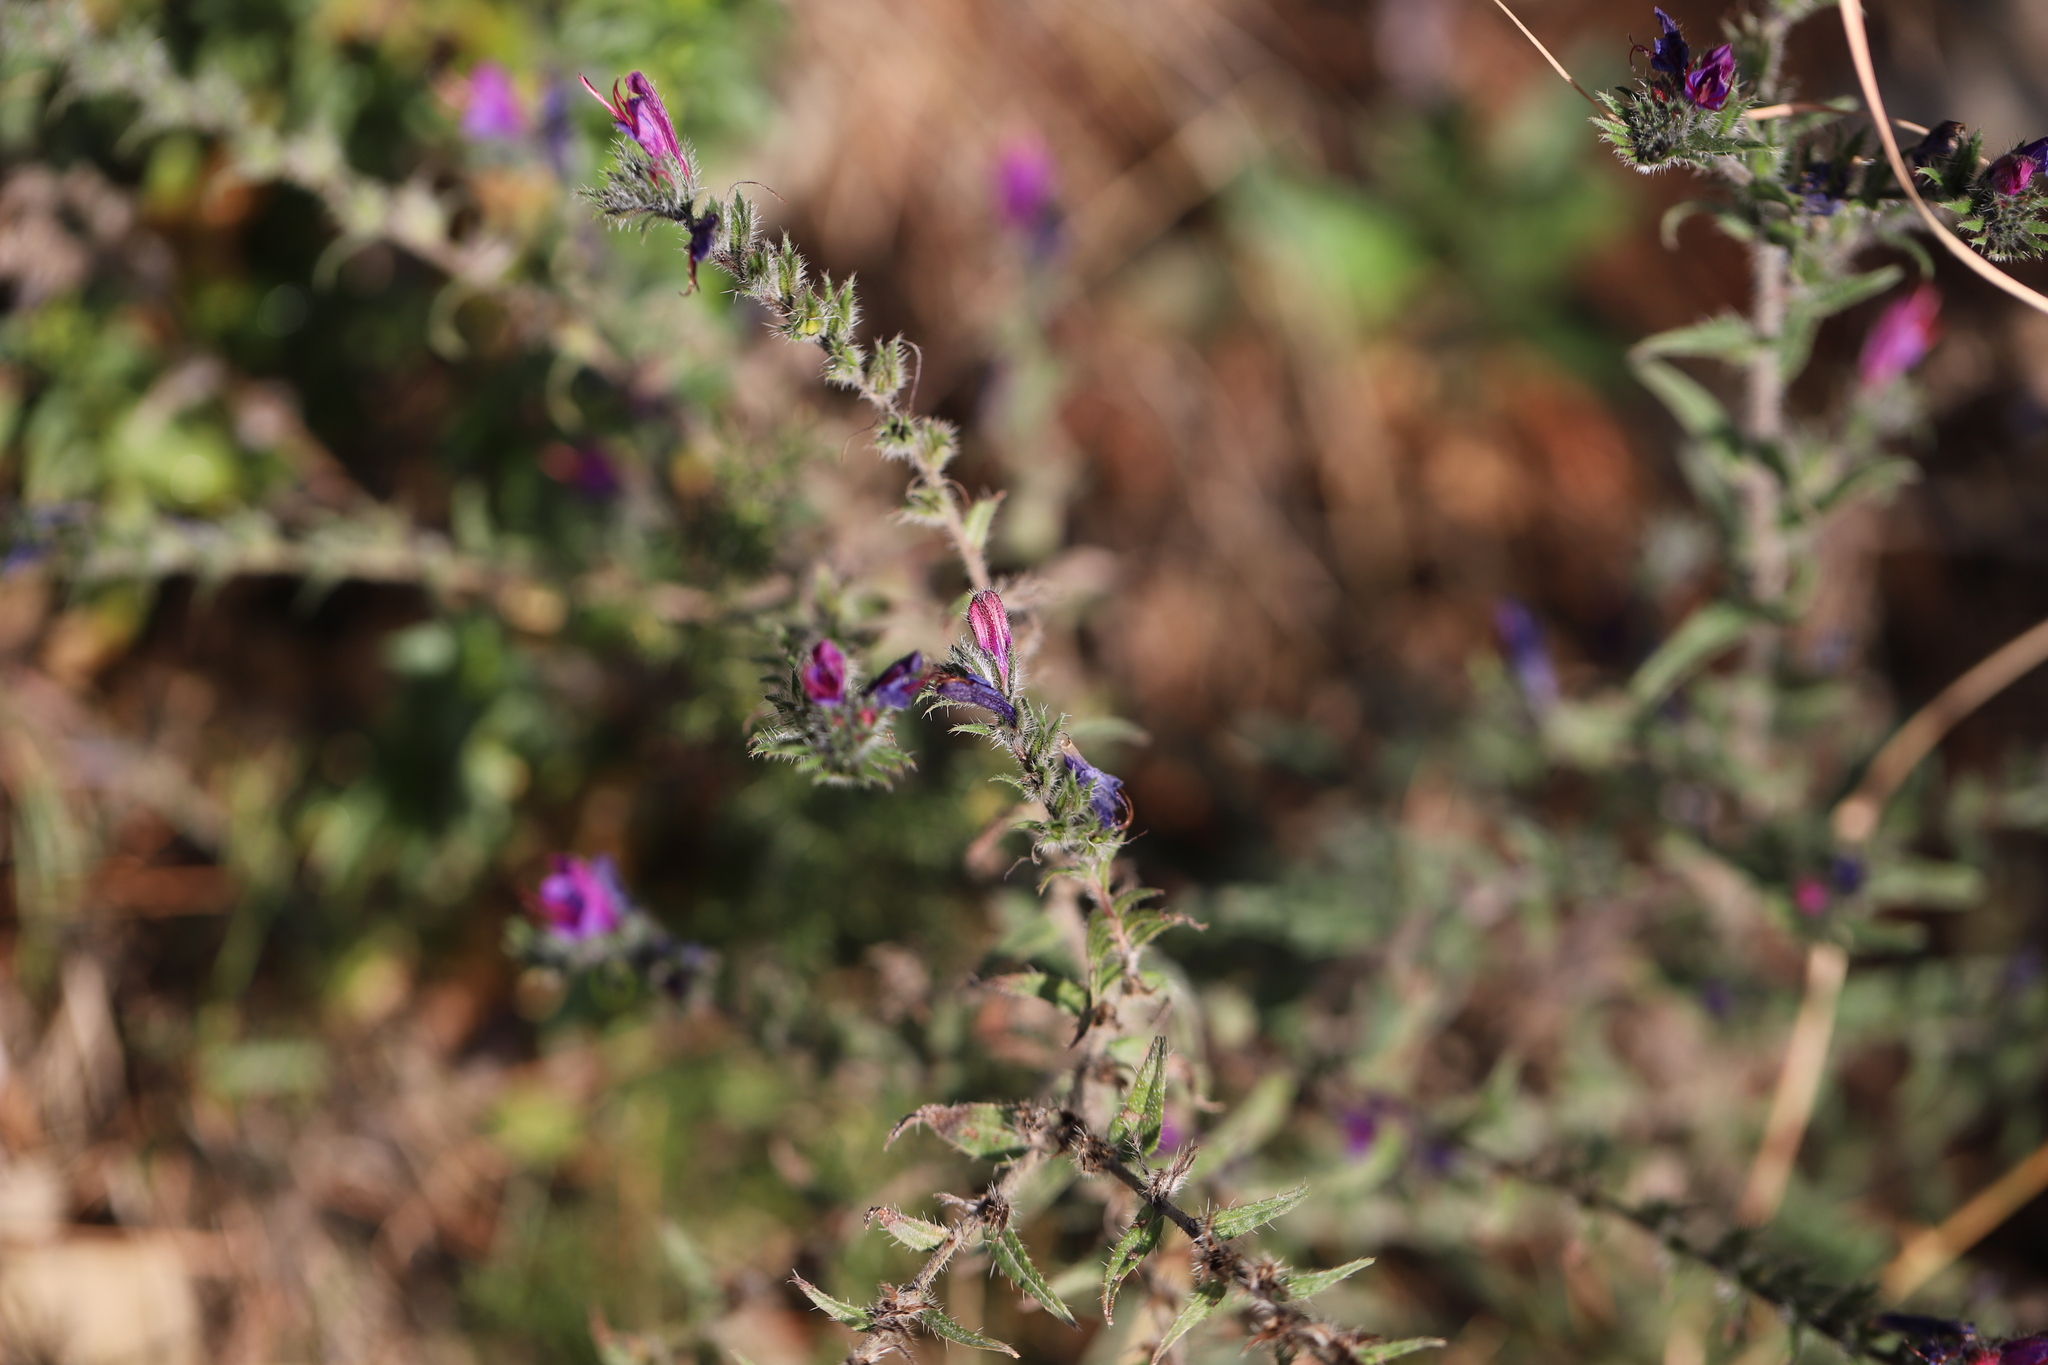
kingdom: Plantae
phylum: Tracheophyta
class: Magnoliopsida
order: Boraginales
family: Boraginaceae
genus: Echium
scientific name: Echium vulgare
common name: Common viper's bugloss
